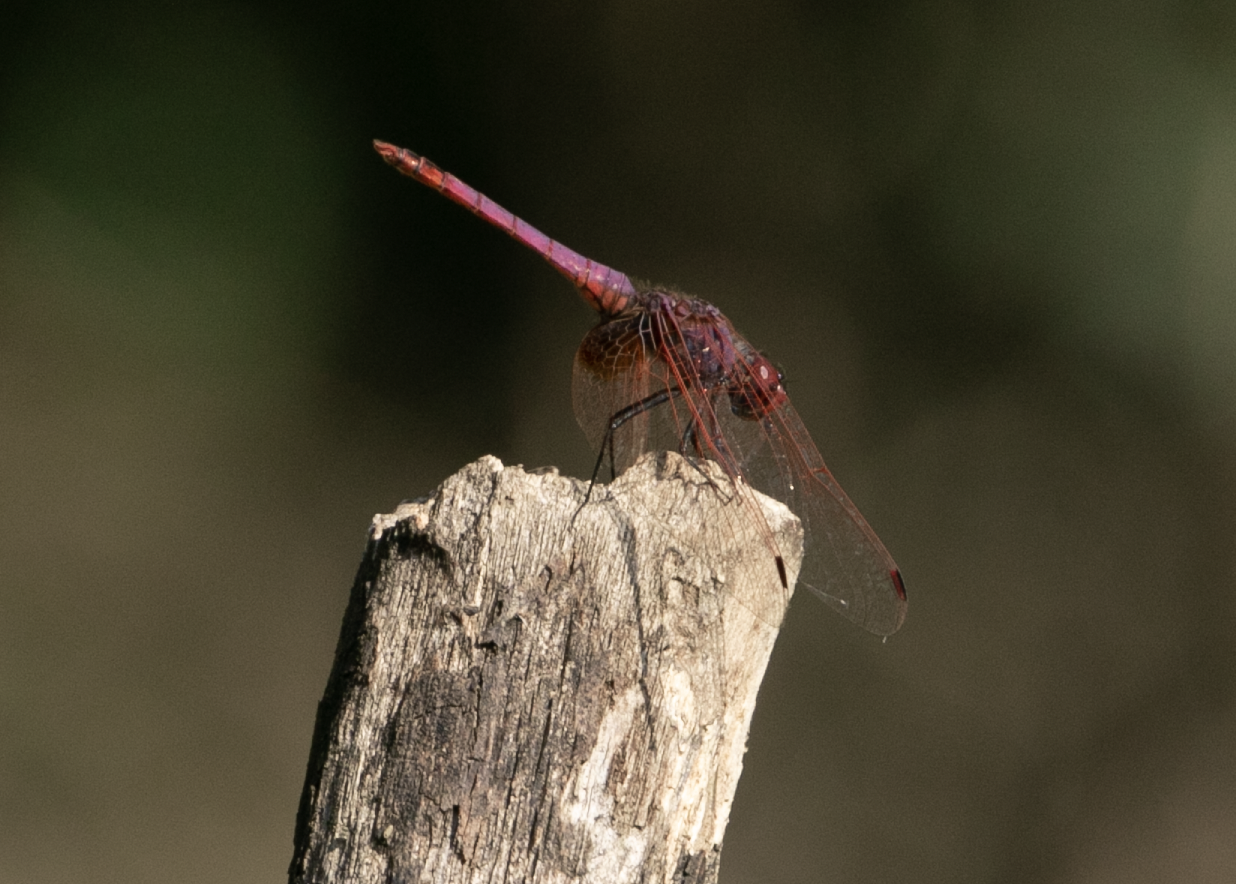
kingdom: Animalia
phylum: Arthropoda
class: Insecta
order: Odonata
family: Libellulidae
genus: Trithemis
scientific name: Trithemis annulata
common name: Violet dropwing
